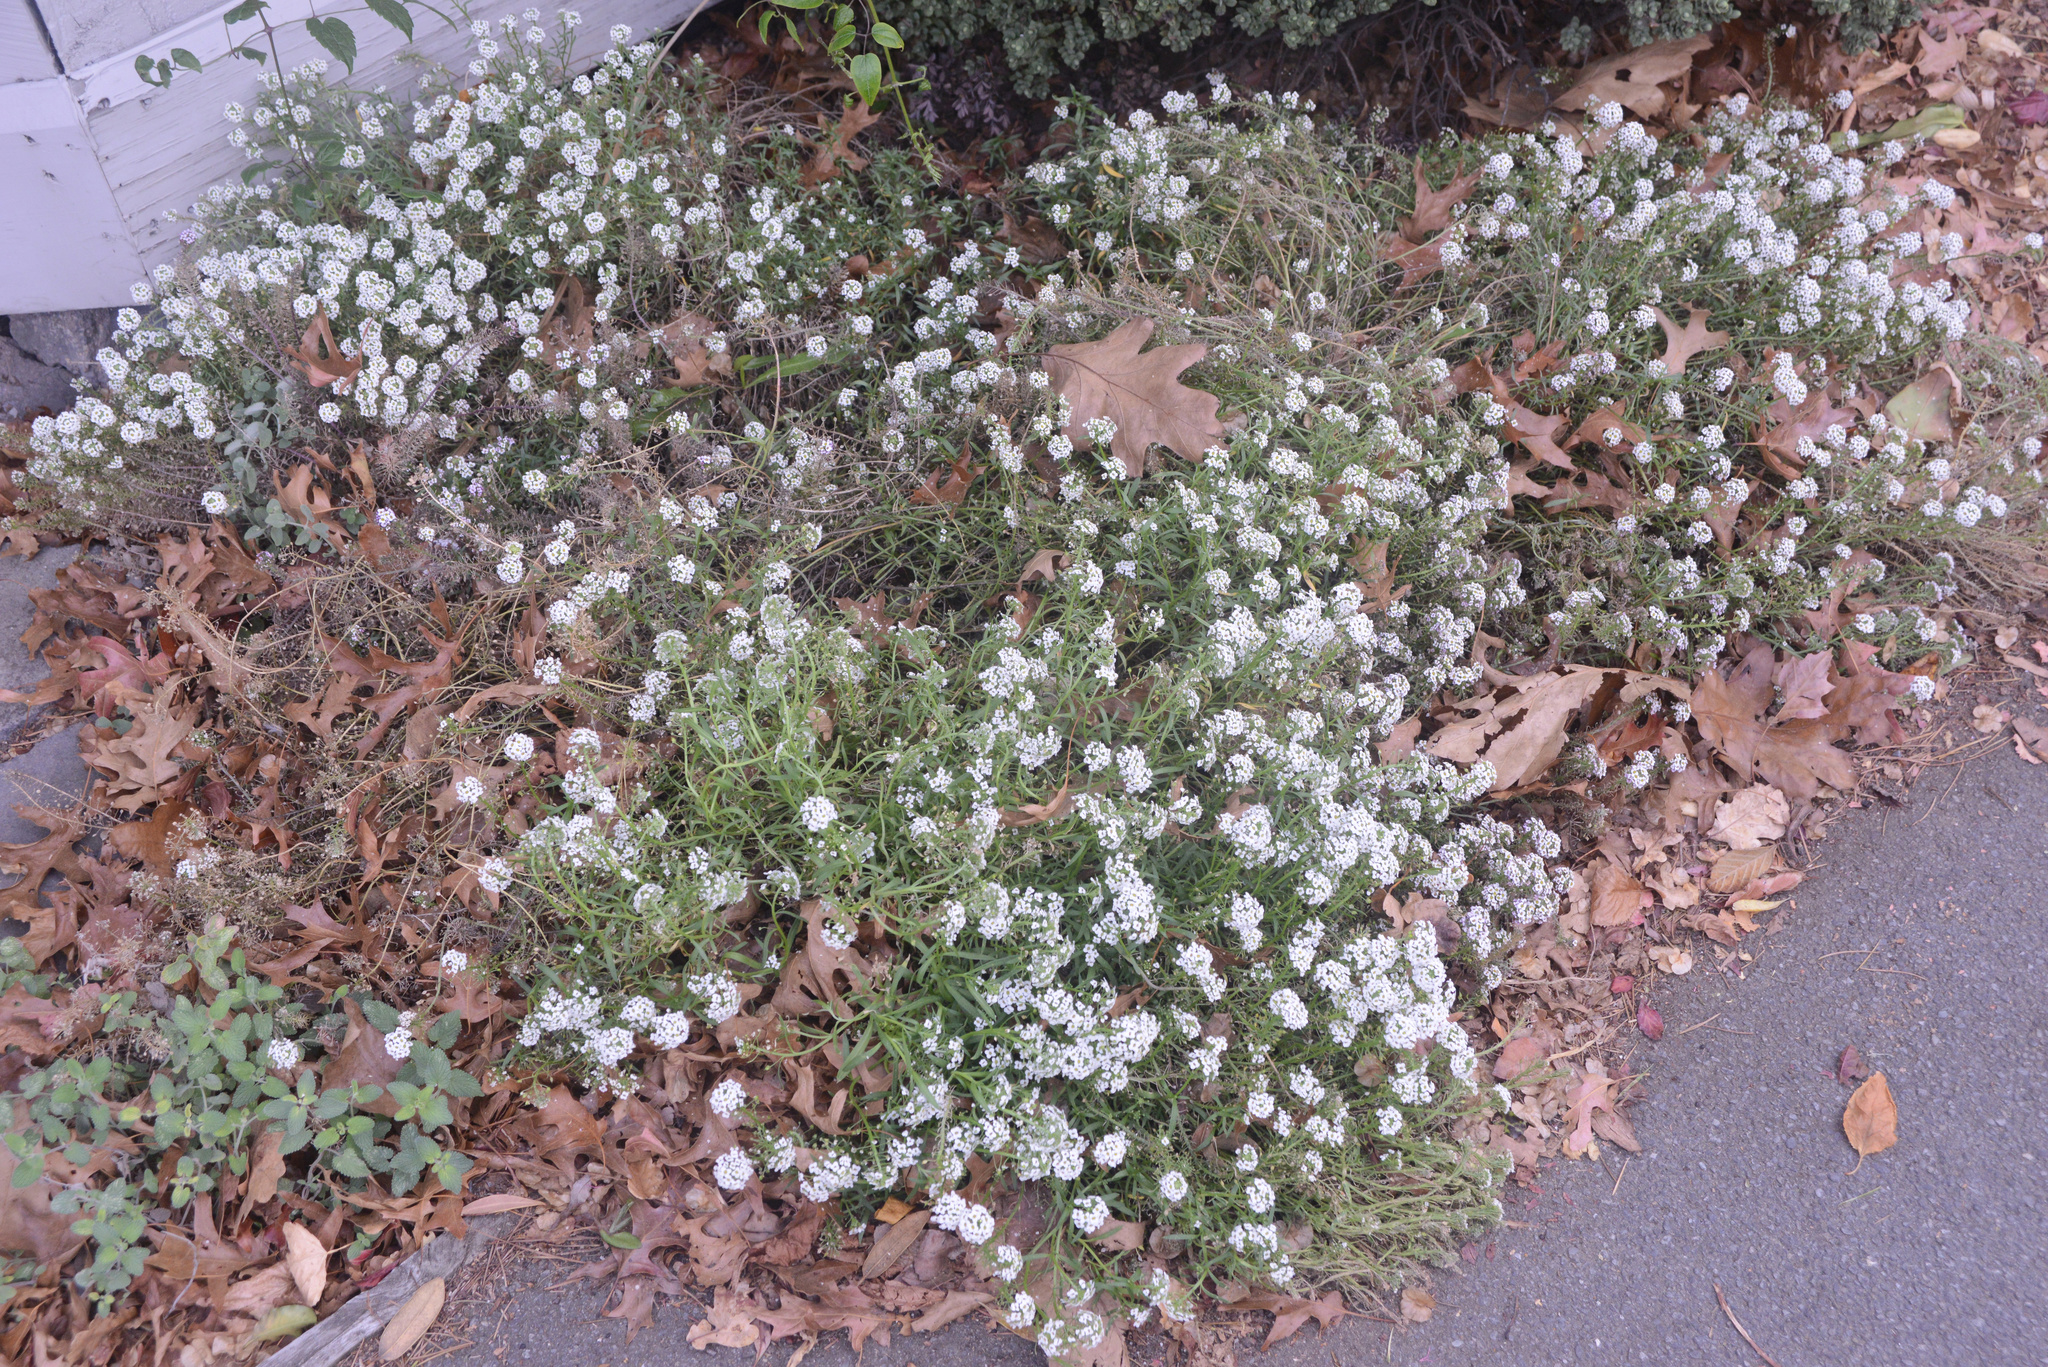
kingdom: Plantae
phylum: Tracheophyta
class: Magnoliopsida
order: Brassicales
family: Brassicaceae
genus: Lobularia
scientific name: Lobularia maritima
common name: Sweet alison
